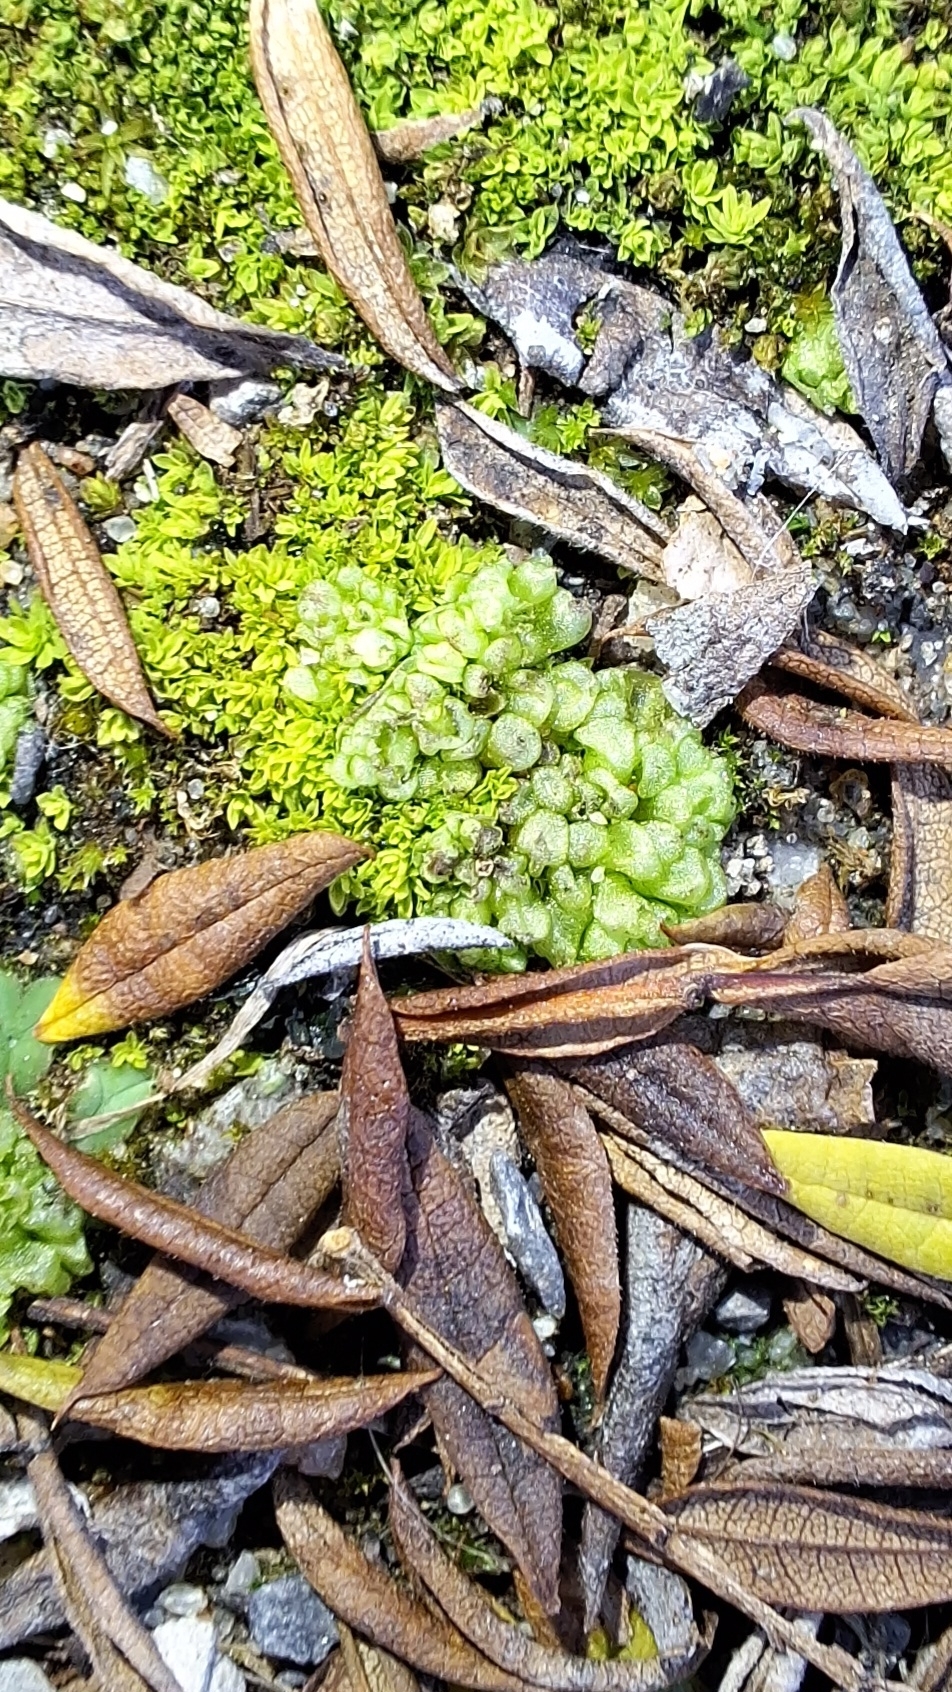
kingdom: Plantae
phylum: Marchantiophyta
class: Marchantiopsida
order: Sphaerocarpales
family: Sphaerocarpaceae
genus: Sphaerocarpos
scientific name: Sphaerocarpos texanus
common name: Texas balloonwort
